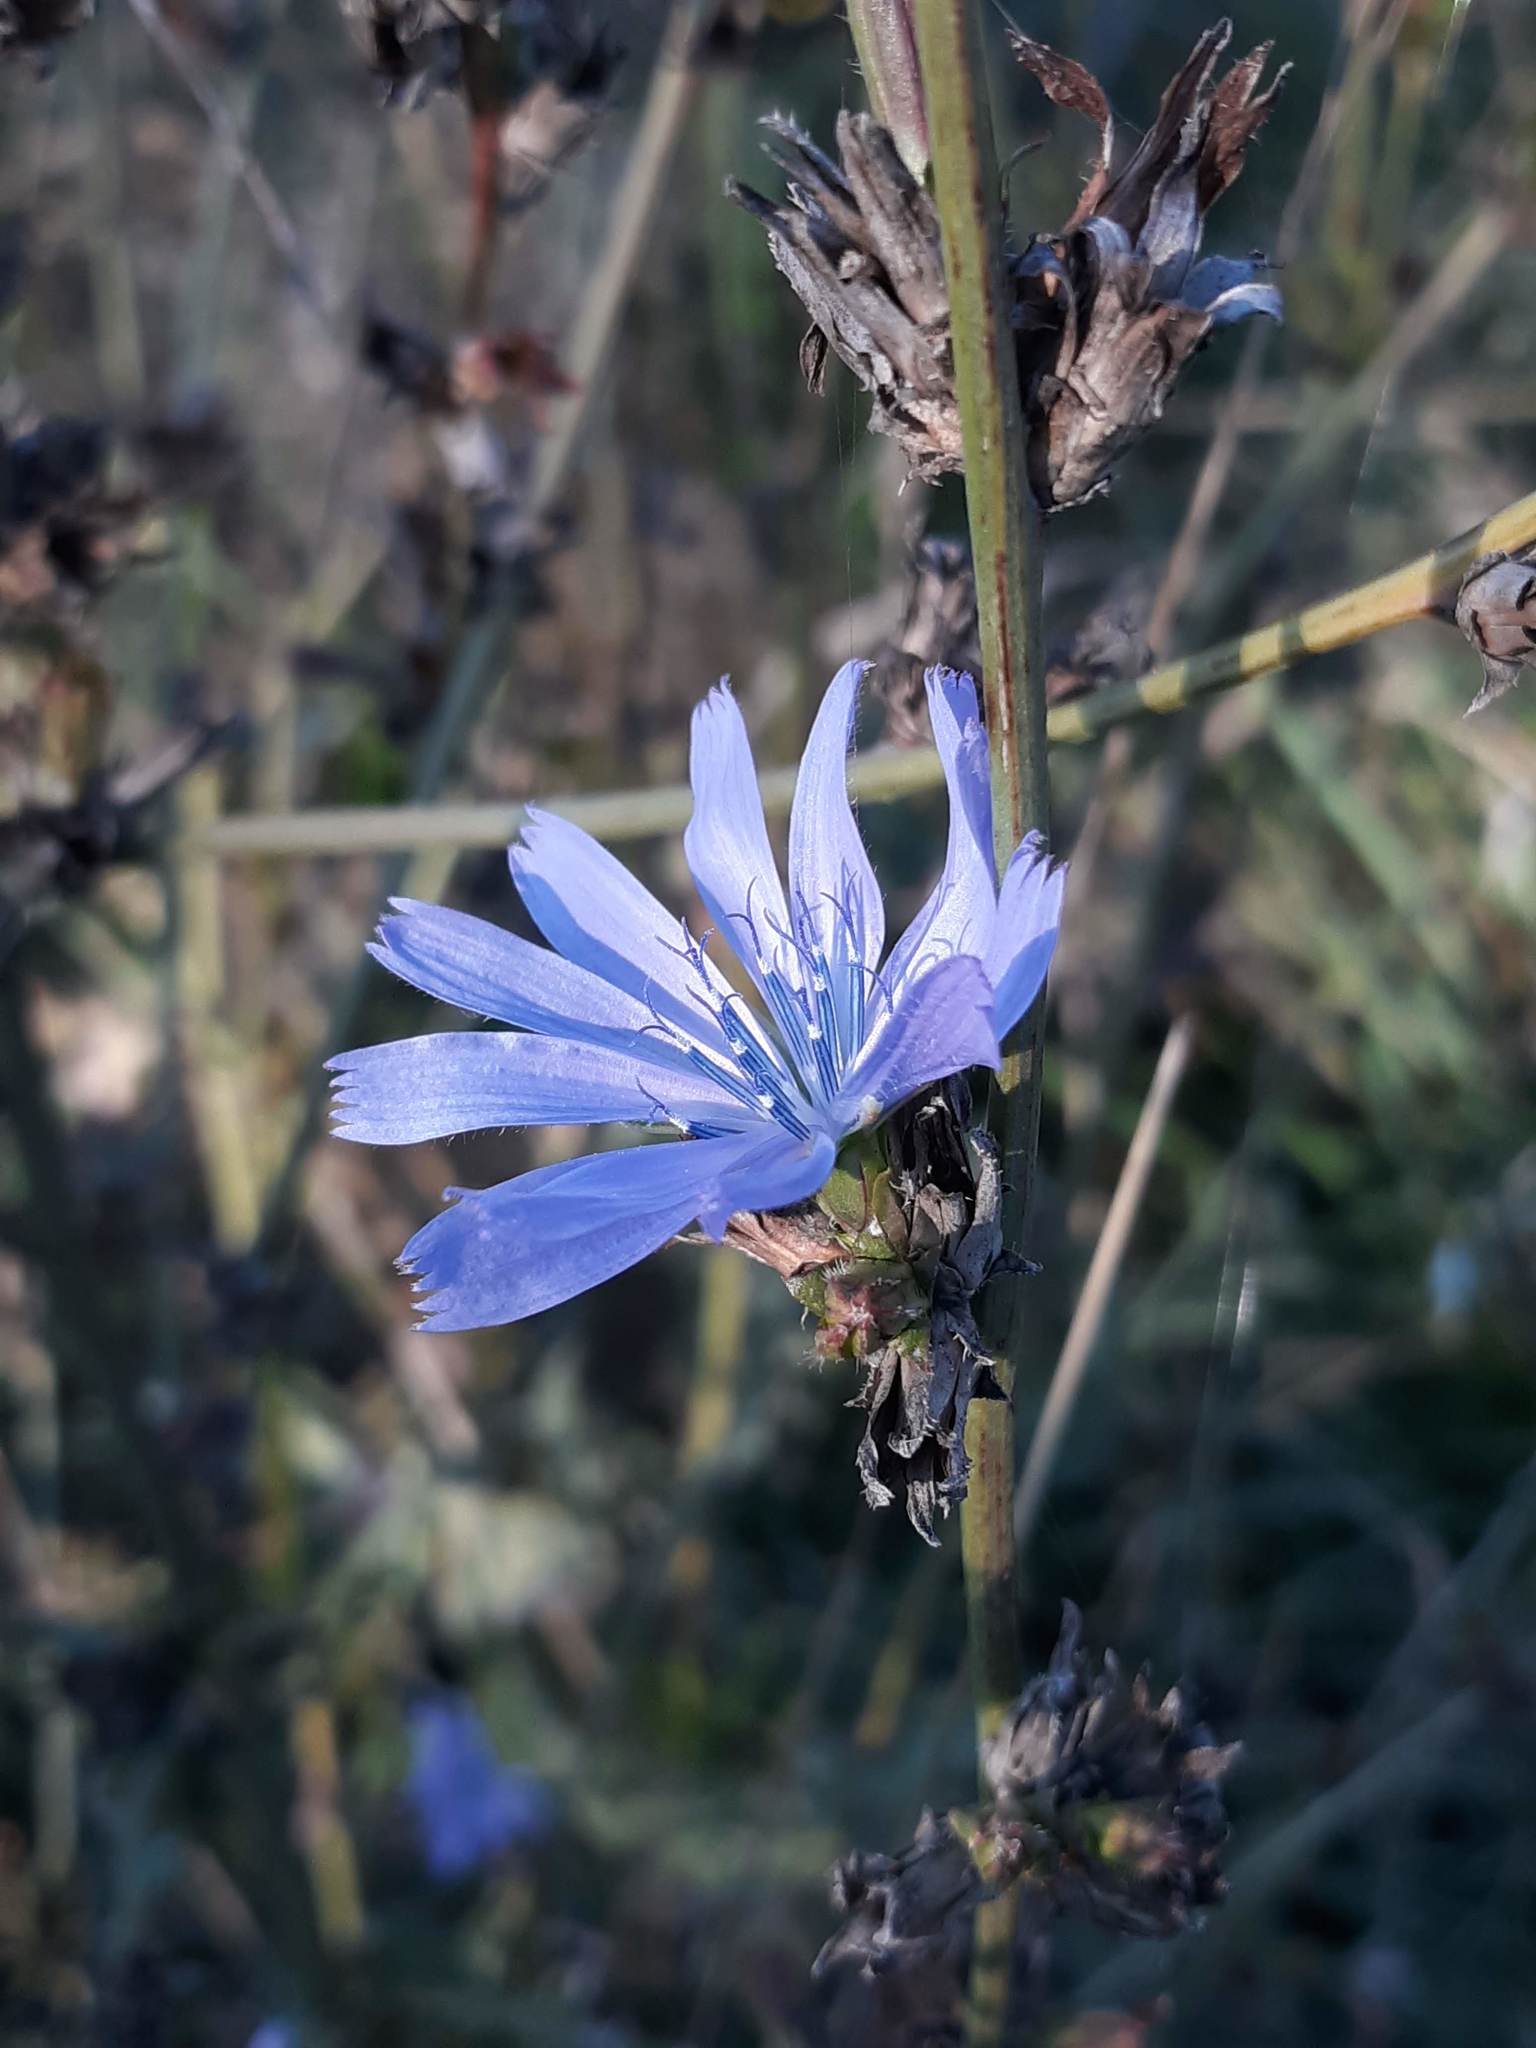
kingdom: Plantae
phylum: Tracheophyta
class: Magnoliopsida
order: Asterales
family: Asteraceae
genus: Cichorium
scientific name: Cichorium intybus
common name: Chicory
